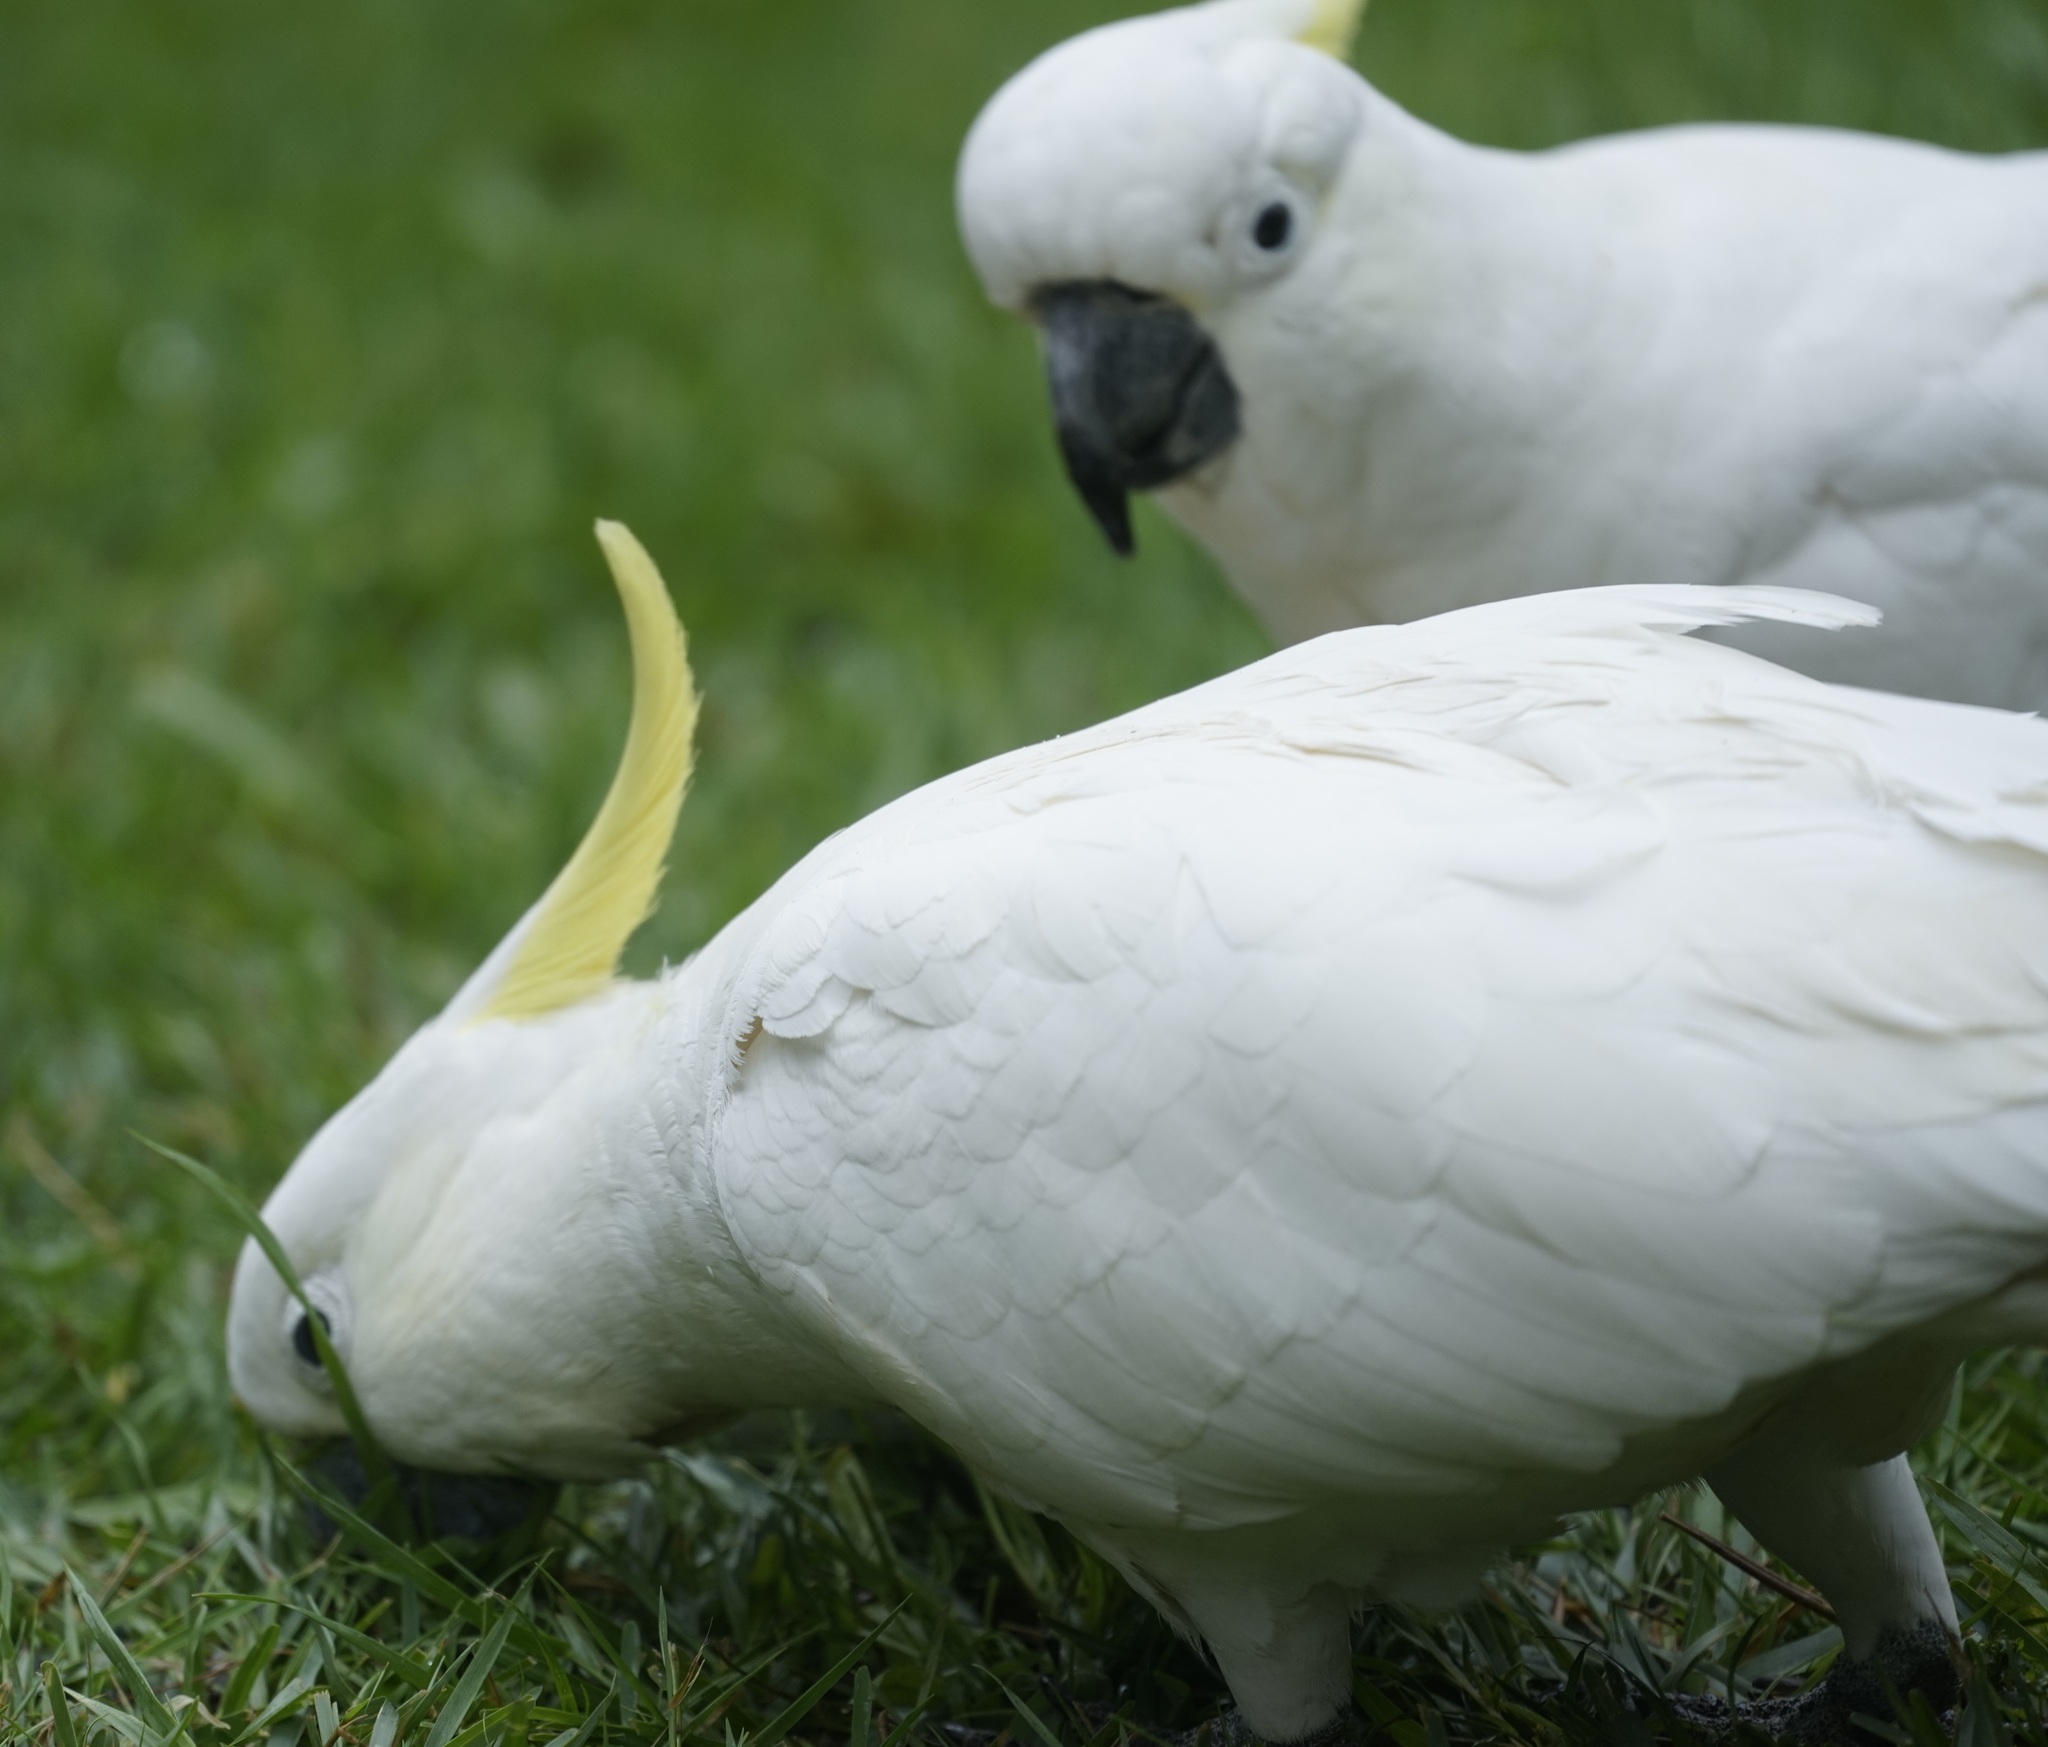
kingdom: Animalia
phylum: Chordata
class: Aves
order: Psittaciformes
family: Psittacidae
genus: Cacatua
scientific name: Cacatua galerita
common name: Sulphur-crested cockatoo
